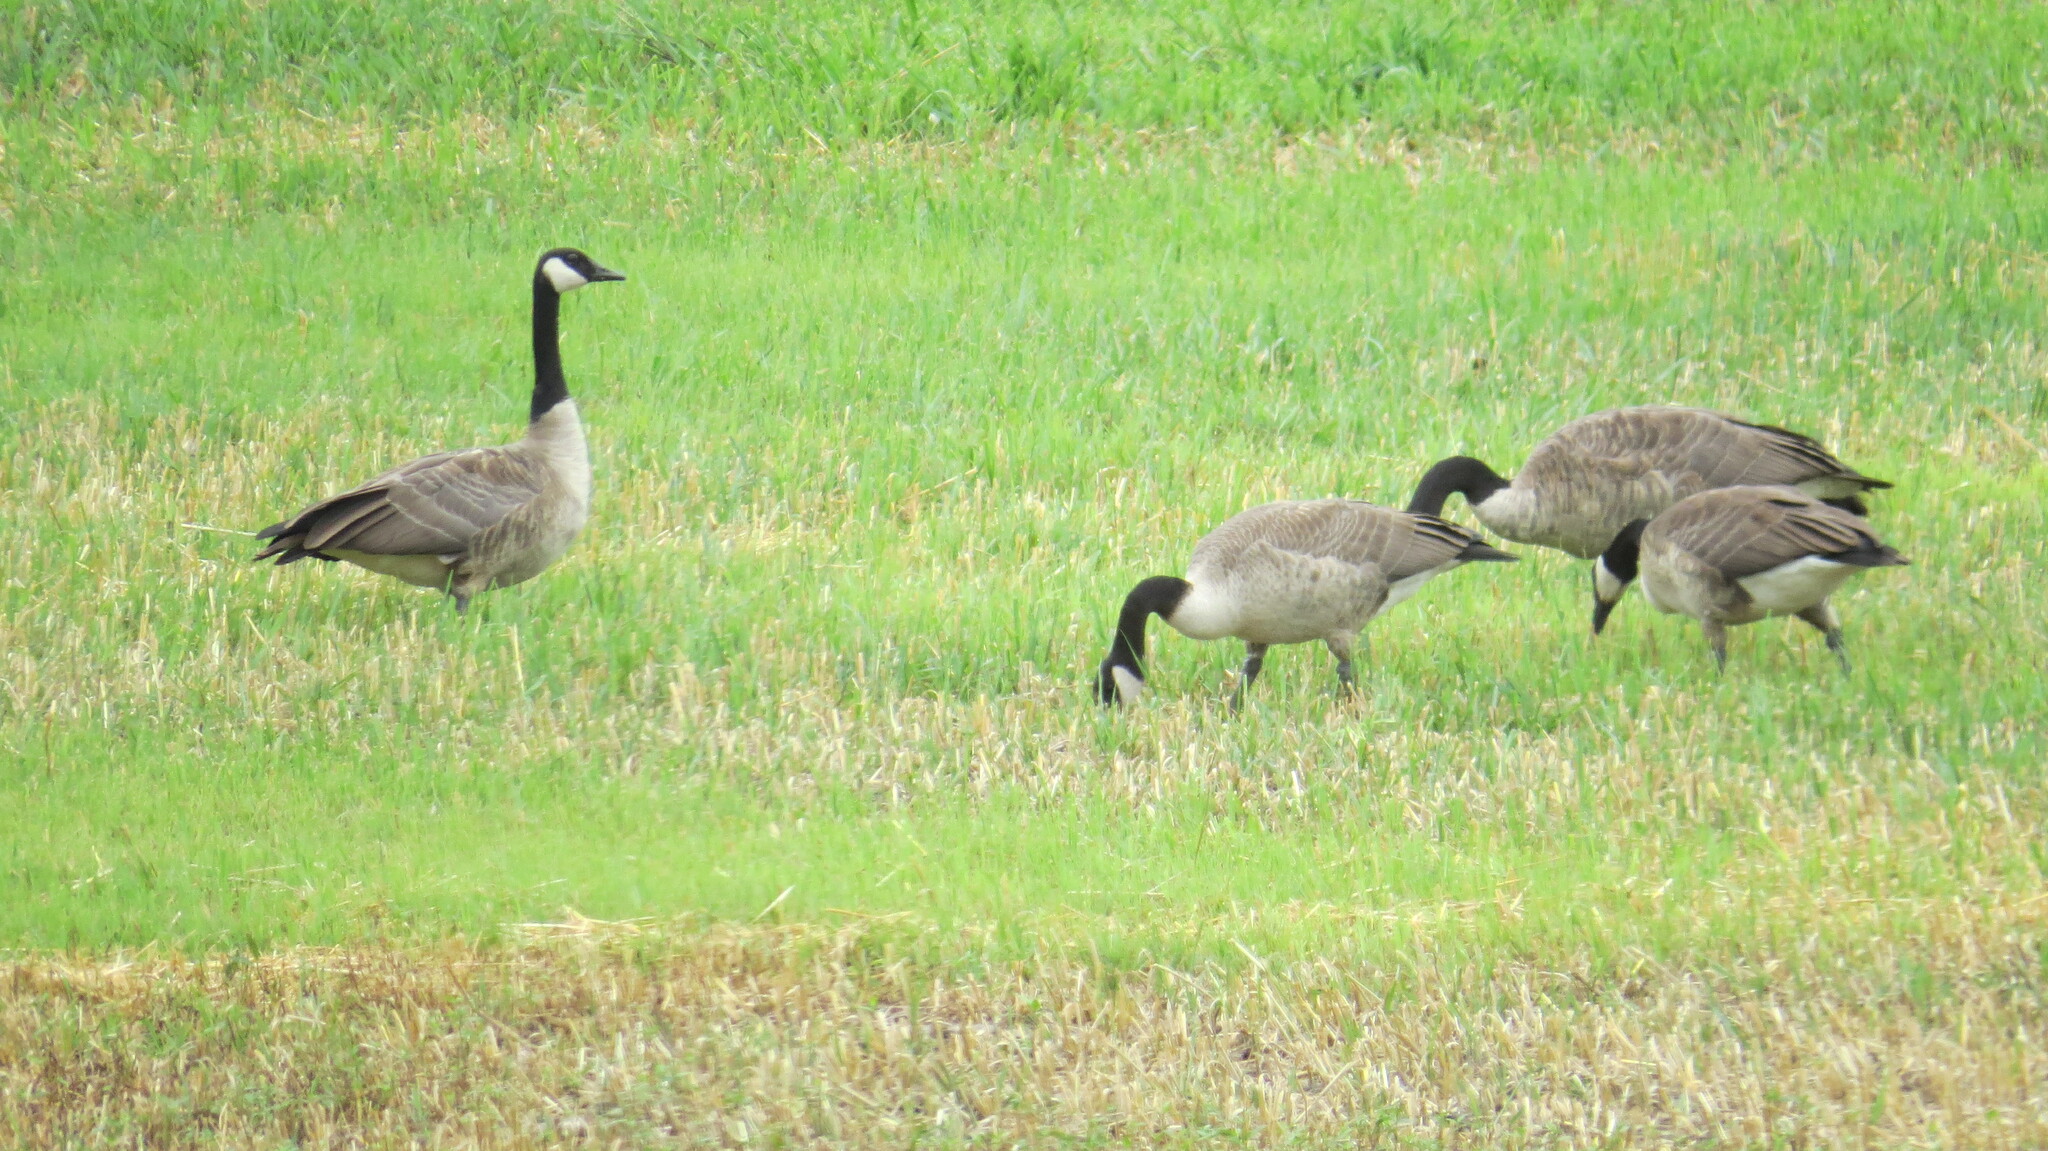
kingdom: Animalia
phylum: Chordata
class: Aves
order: Anseriformes
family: Anatidae
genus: Branta
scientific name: Branta canadensis
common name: Canada goose
